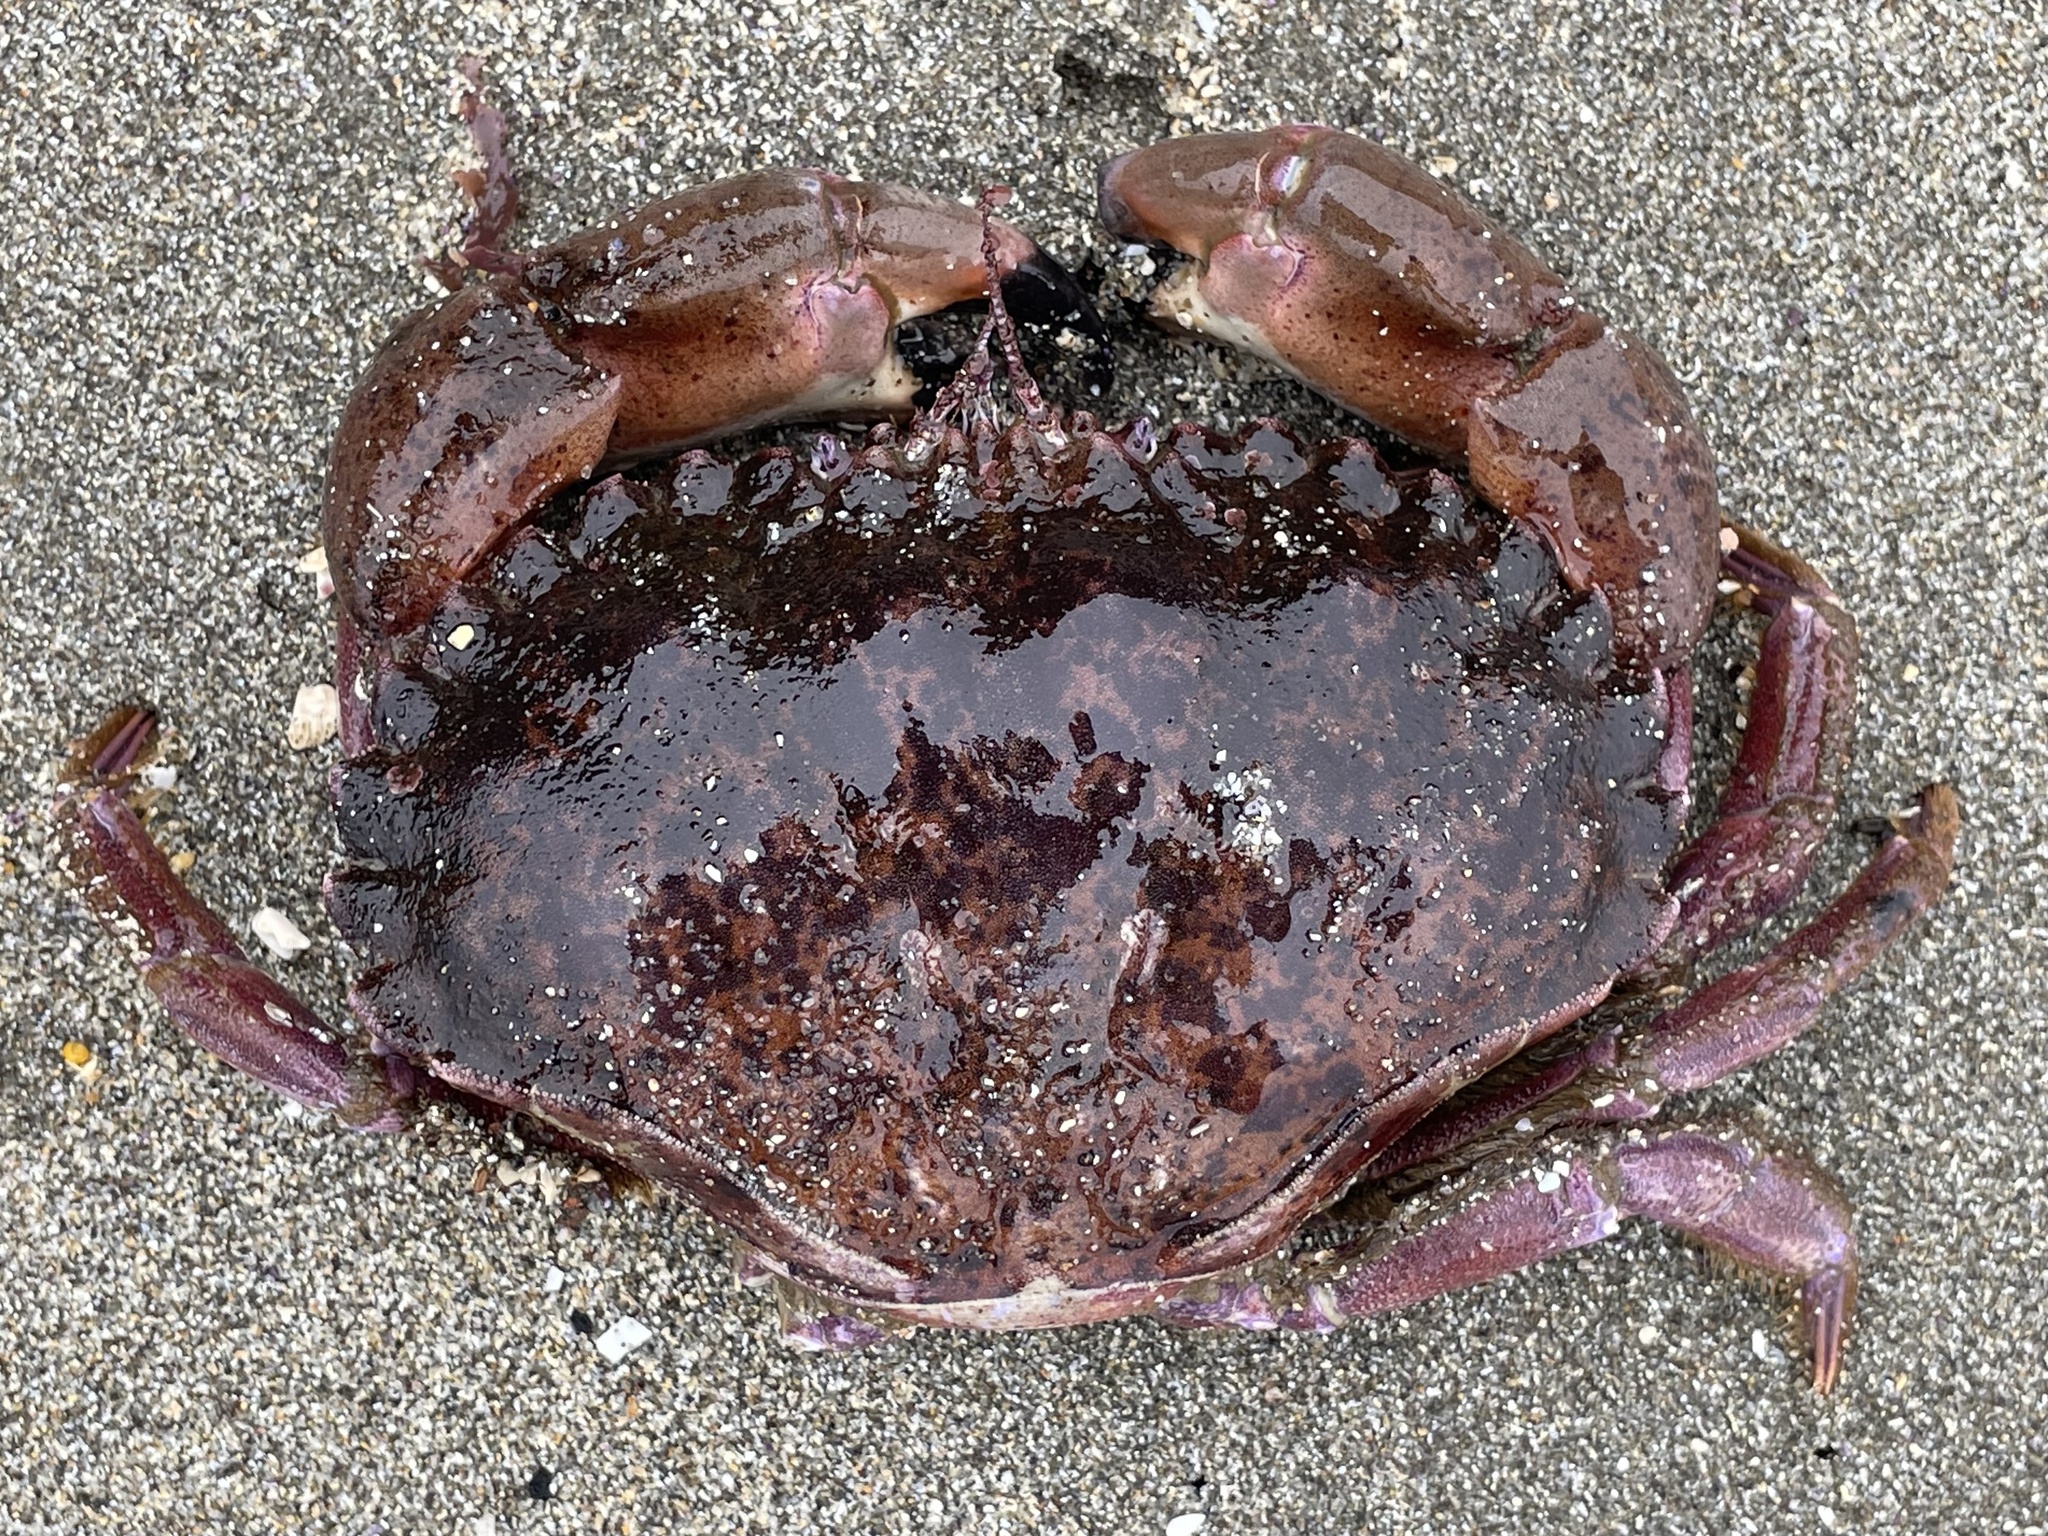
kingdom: Animalia
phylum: Arthropoda
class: Malacostraca
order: Decapoda
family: Cancridae
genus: Romaleon
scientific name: Romaleon antennarium
